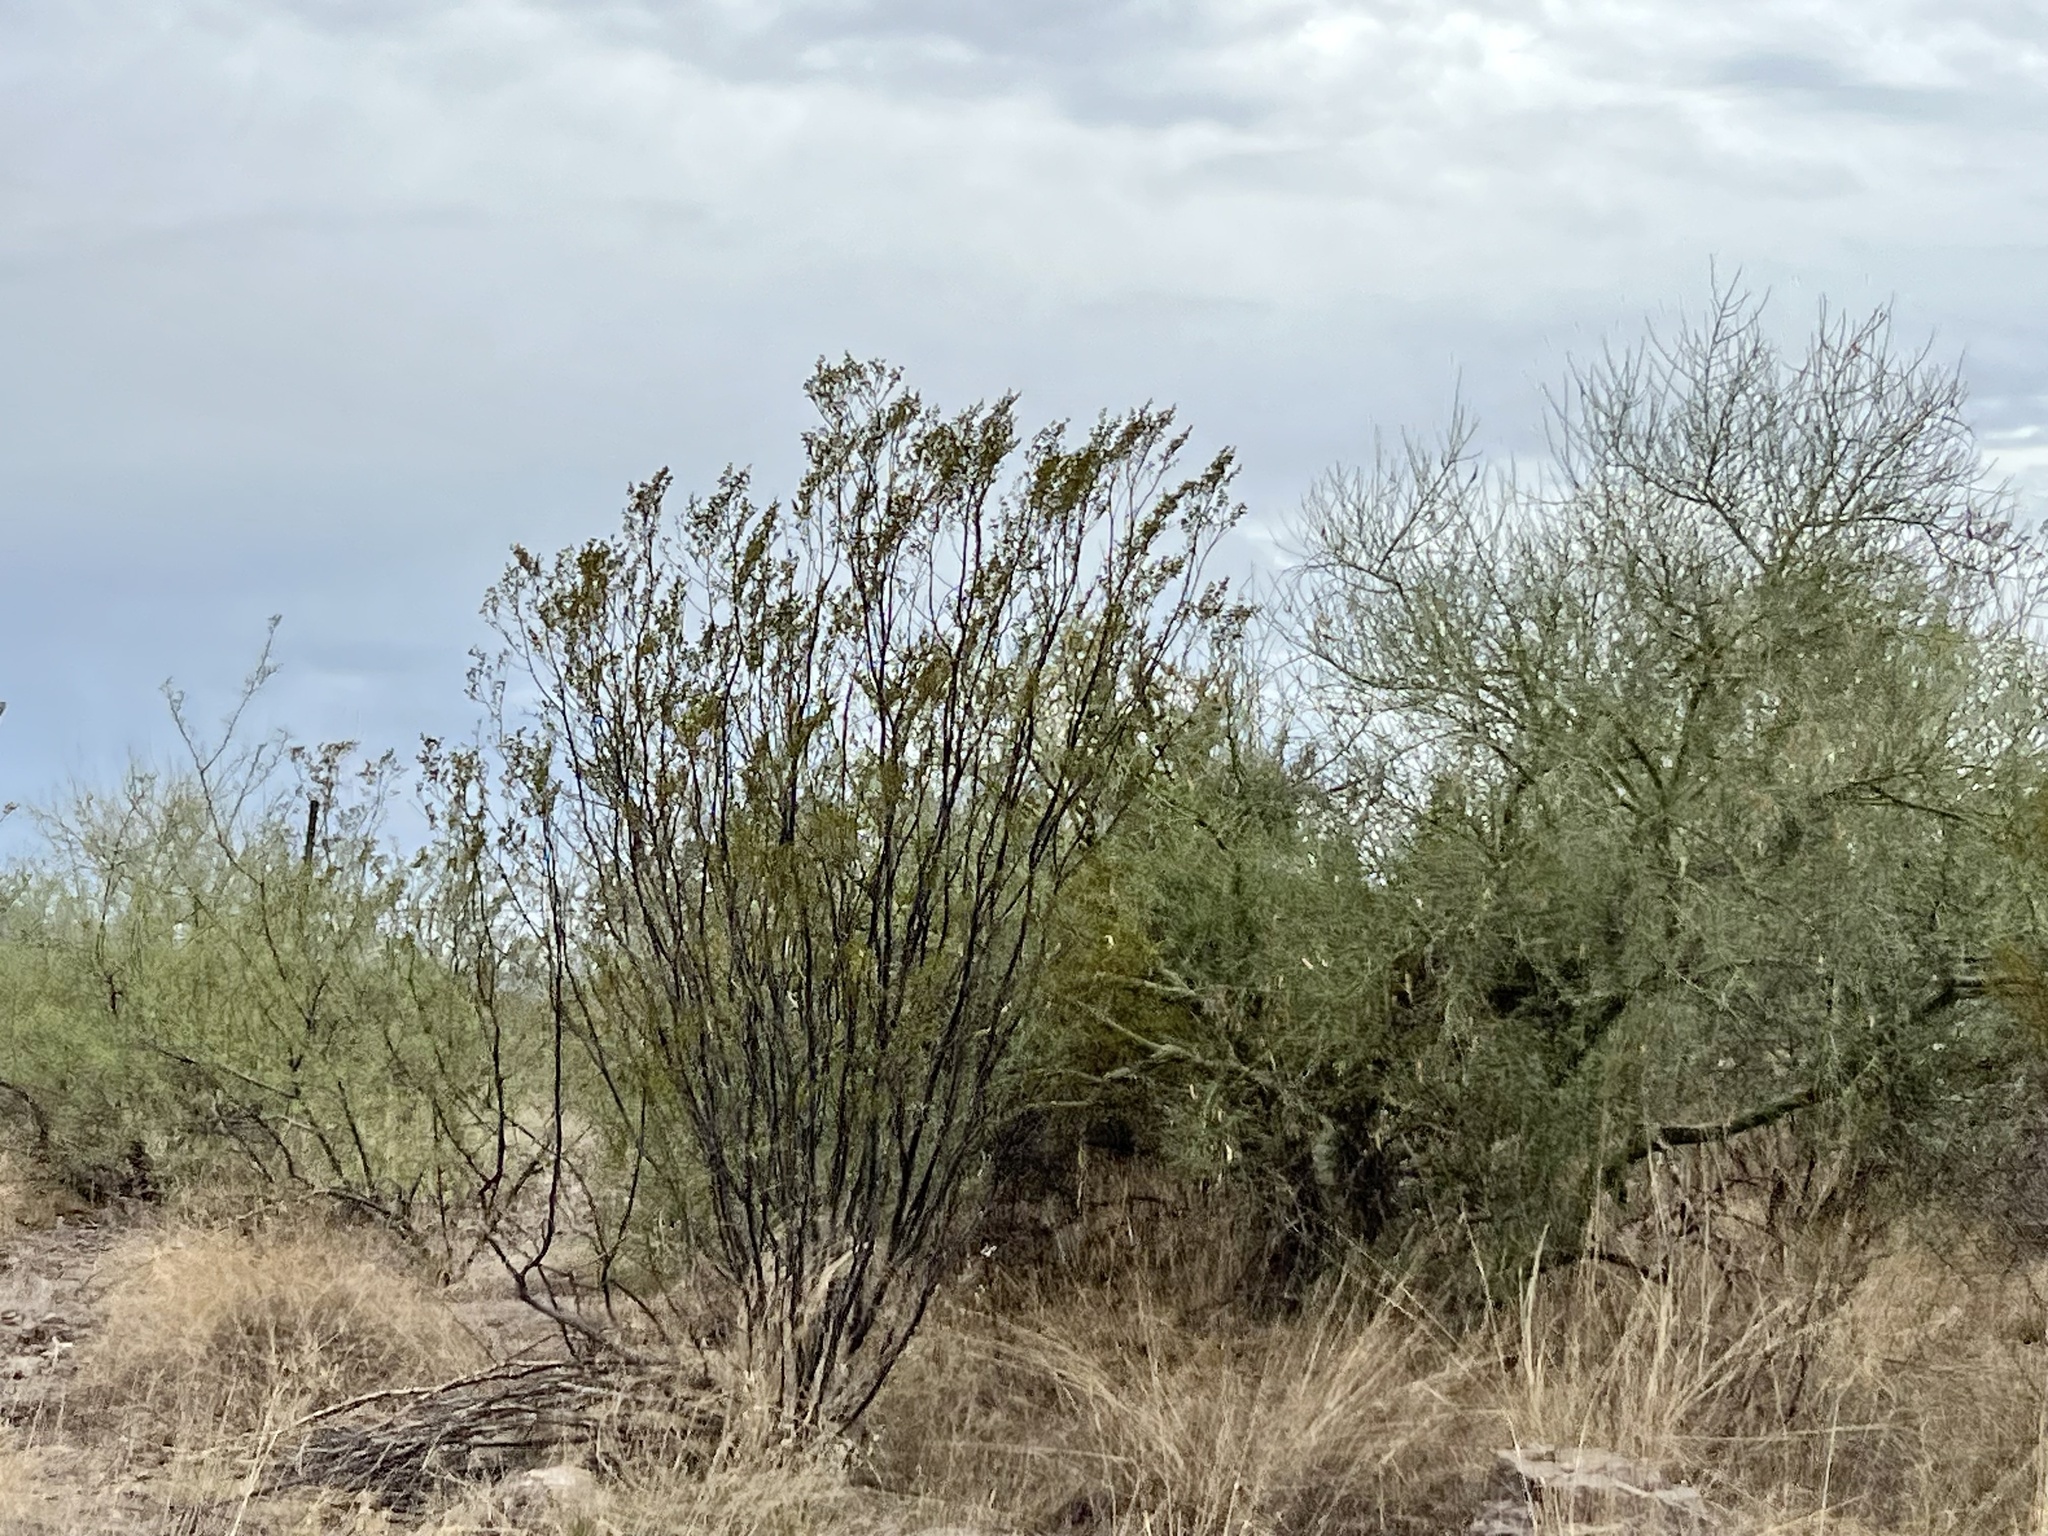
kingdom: Plantae
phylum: Tracheophyta
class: Magnoliopsida
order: Zygophyllales
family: Zygophyllaceae
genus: Larrea
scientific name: Larrea tridentata
